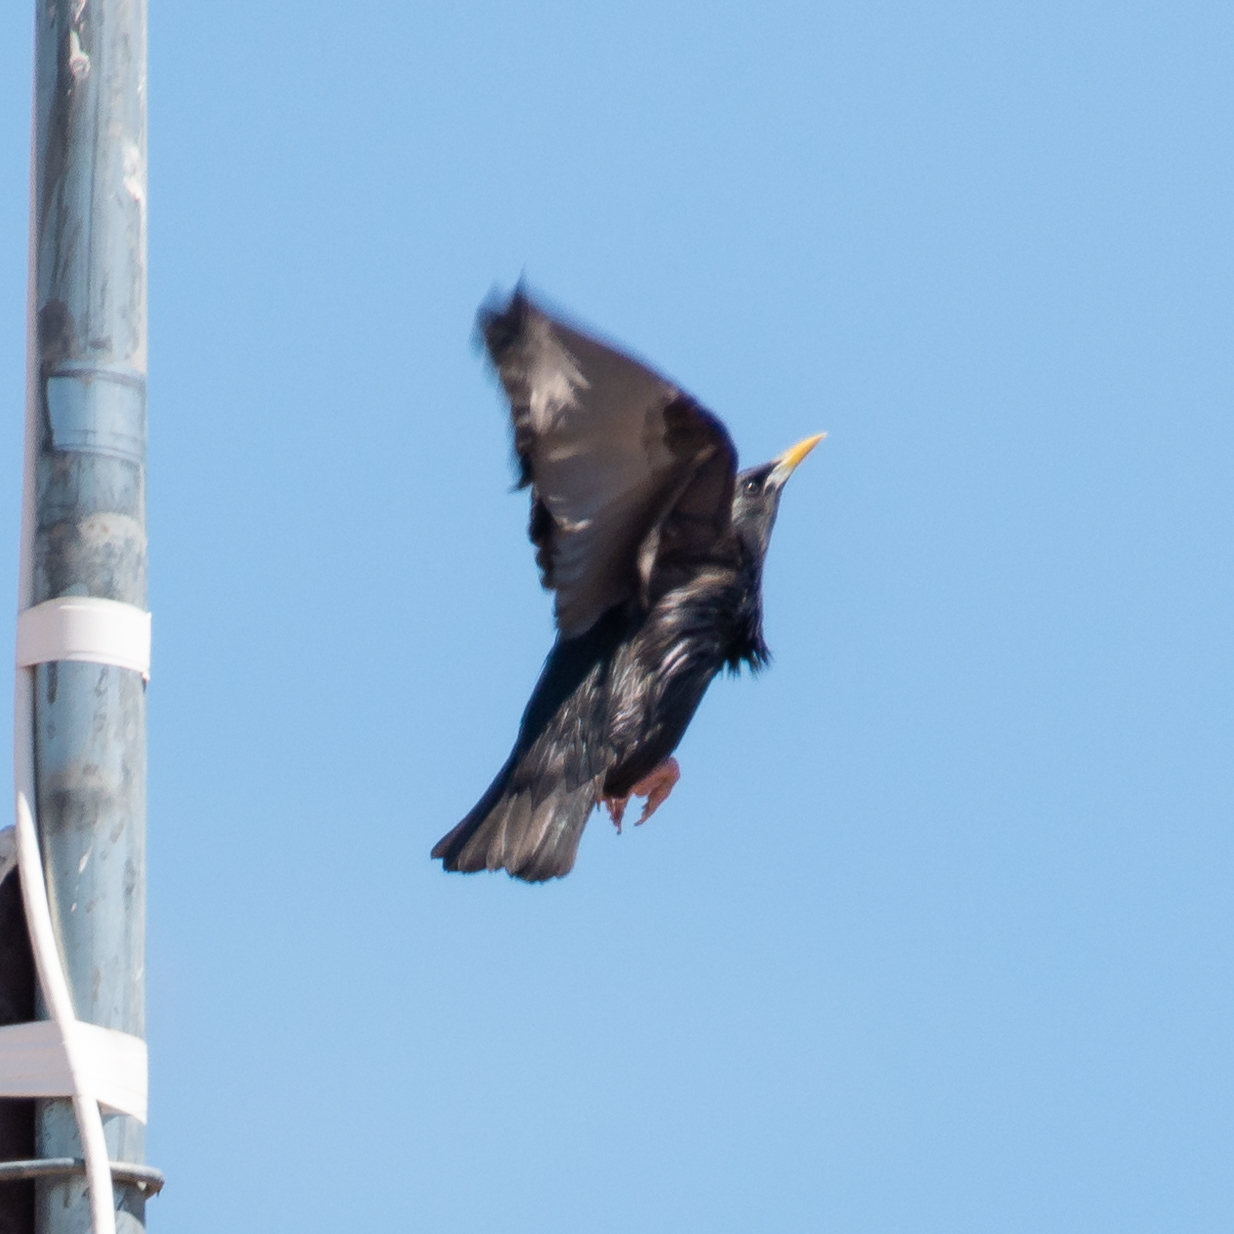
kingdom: Animalia
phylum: Chordata
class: Aves
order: Passeriformes
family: Sturnidae
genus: Sturnus
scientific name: Sturnus unicolor
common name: Spotless starling
